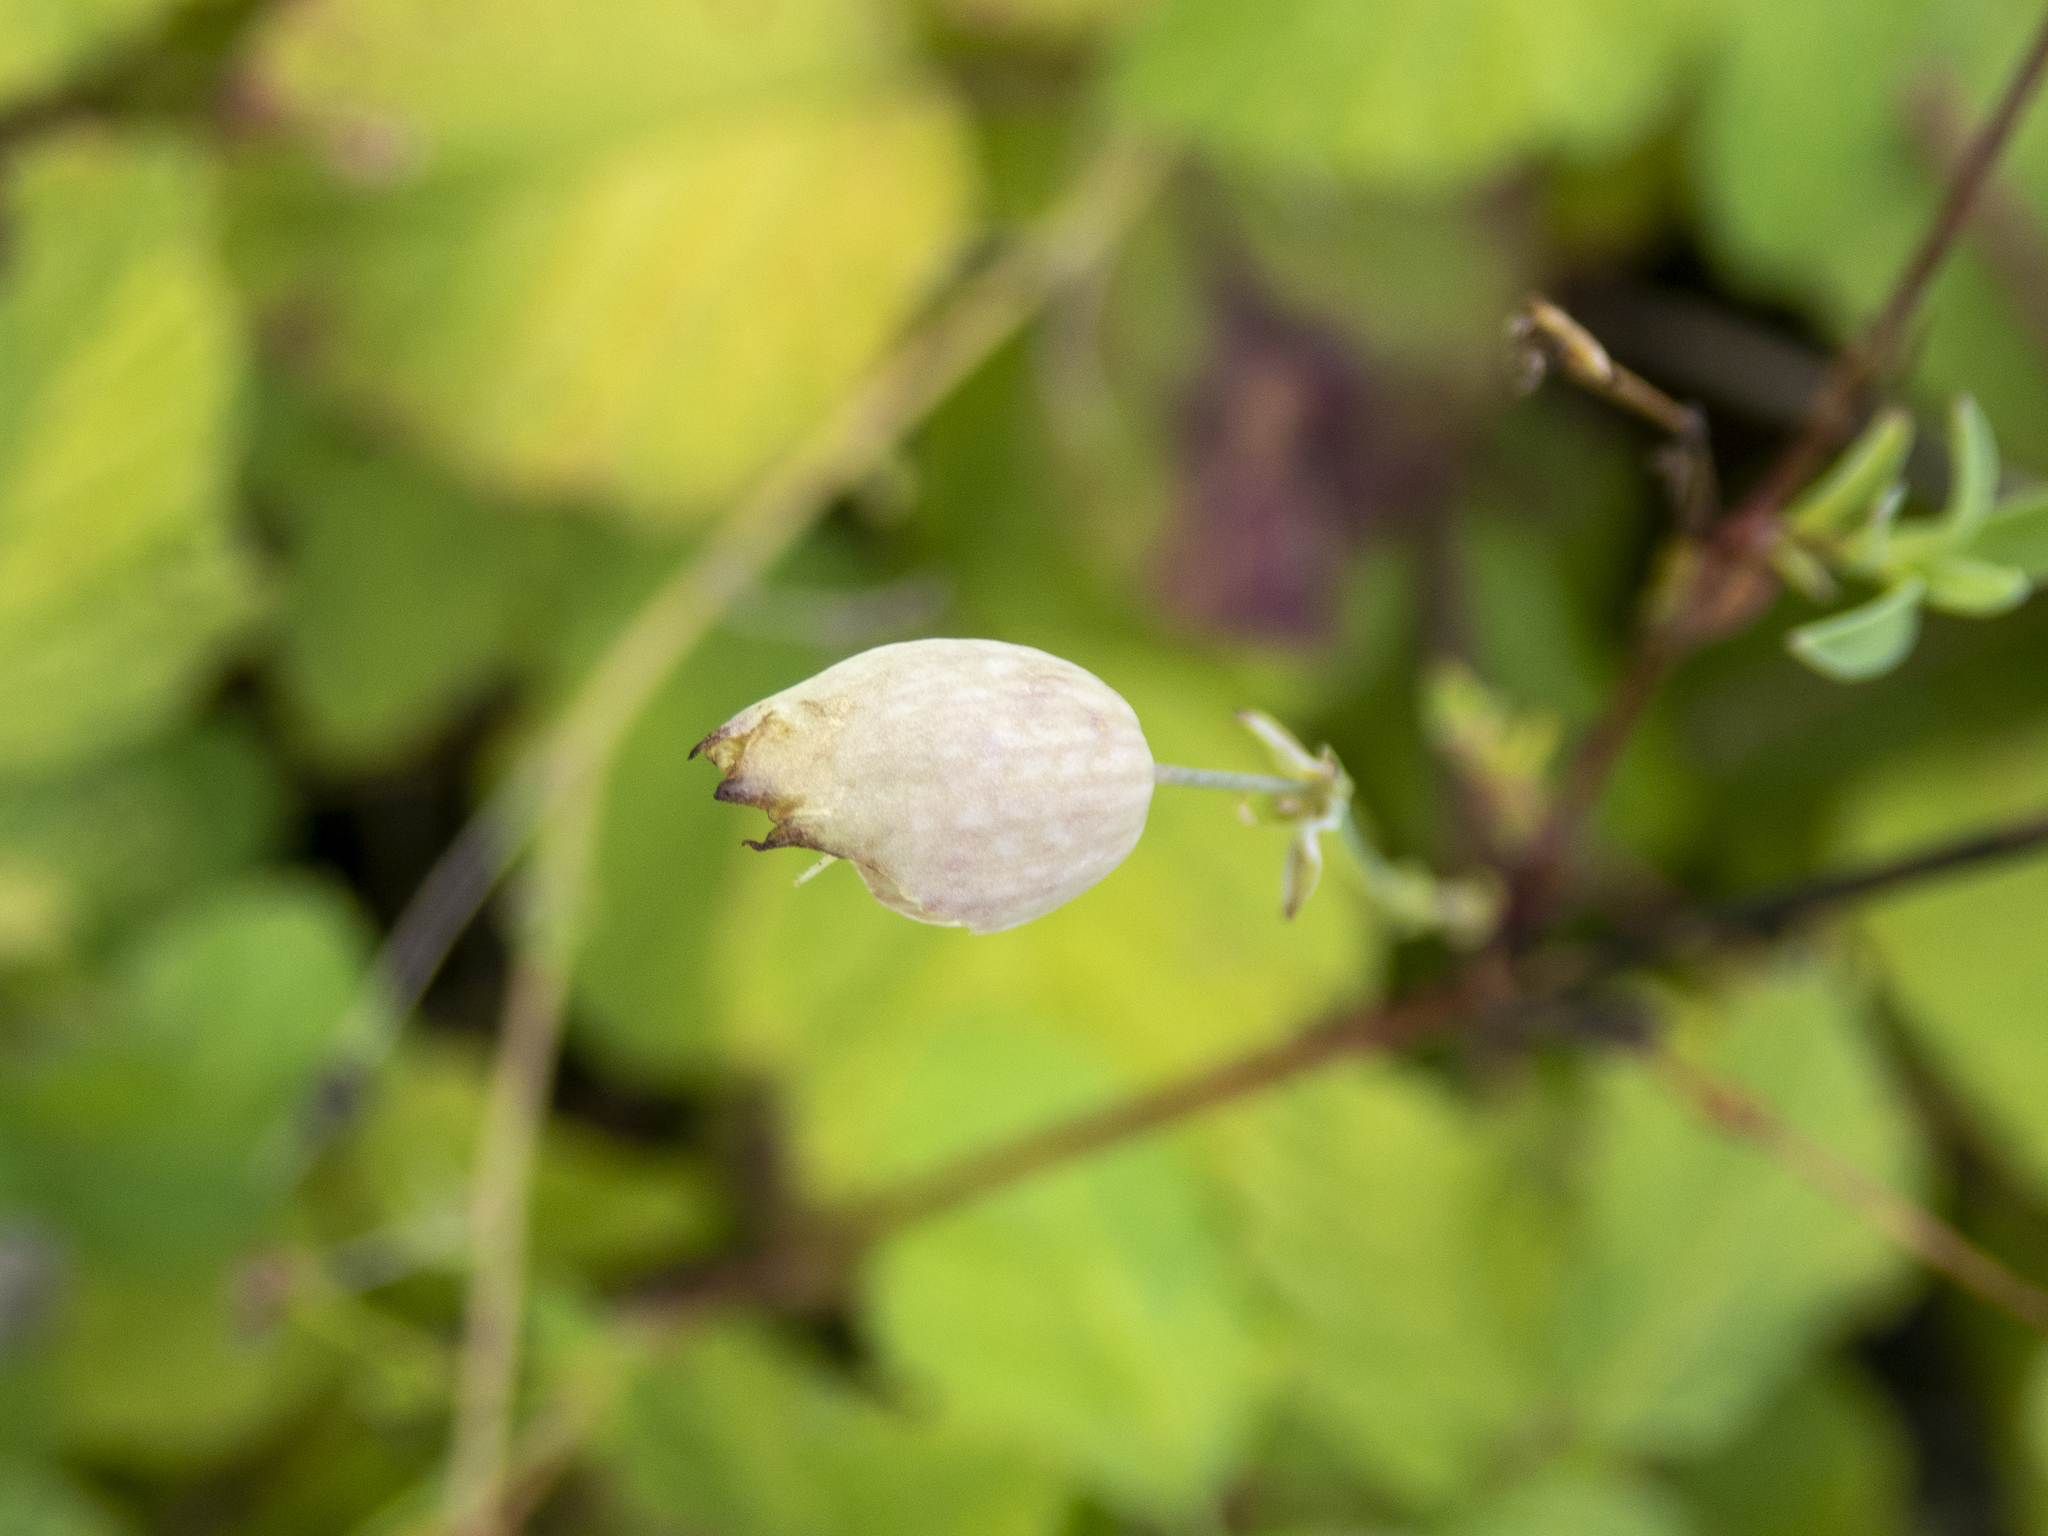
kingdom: Plantae
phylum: Tracheophyta
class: Magnoliopsida
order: Caryophyllales
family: Caryophyllaceae
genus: Silene
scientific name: Silene vulgaris
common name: Bladder campion
